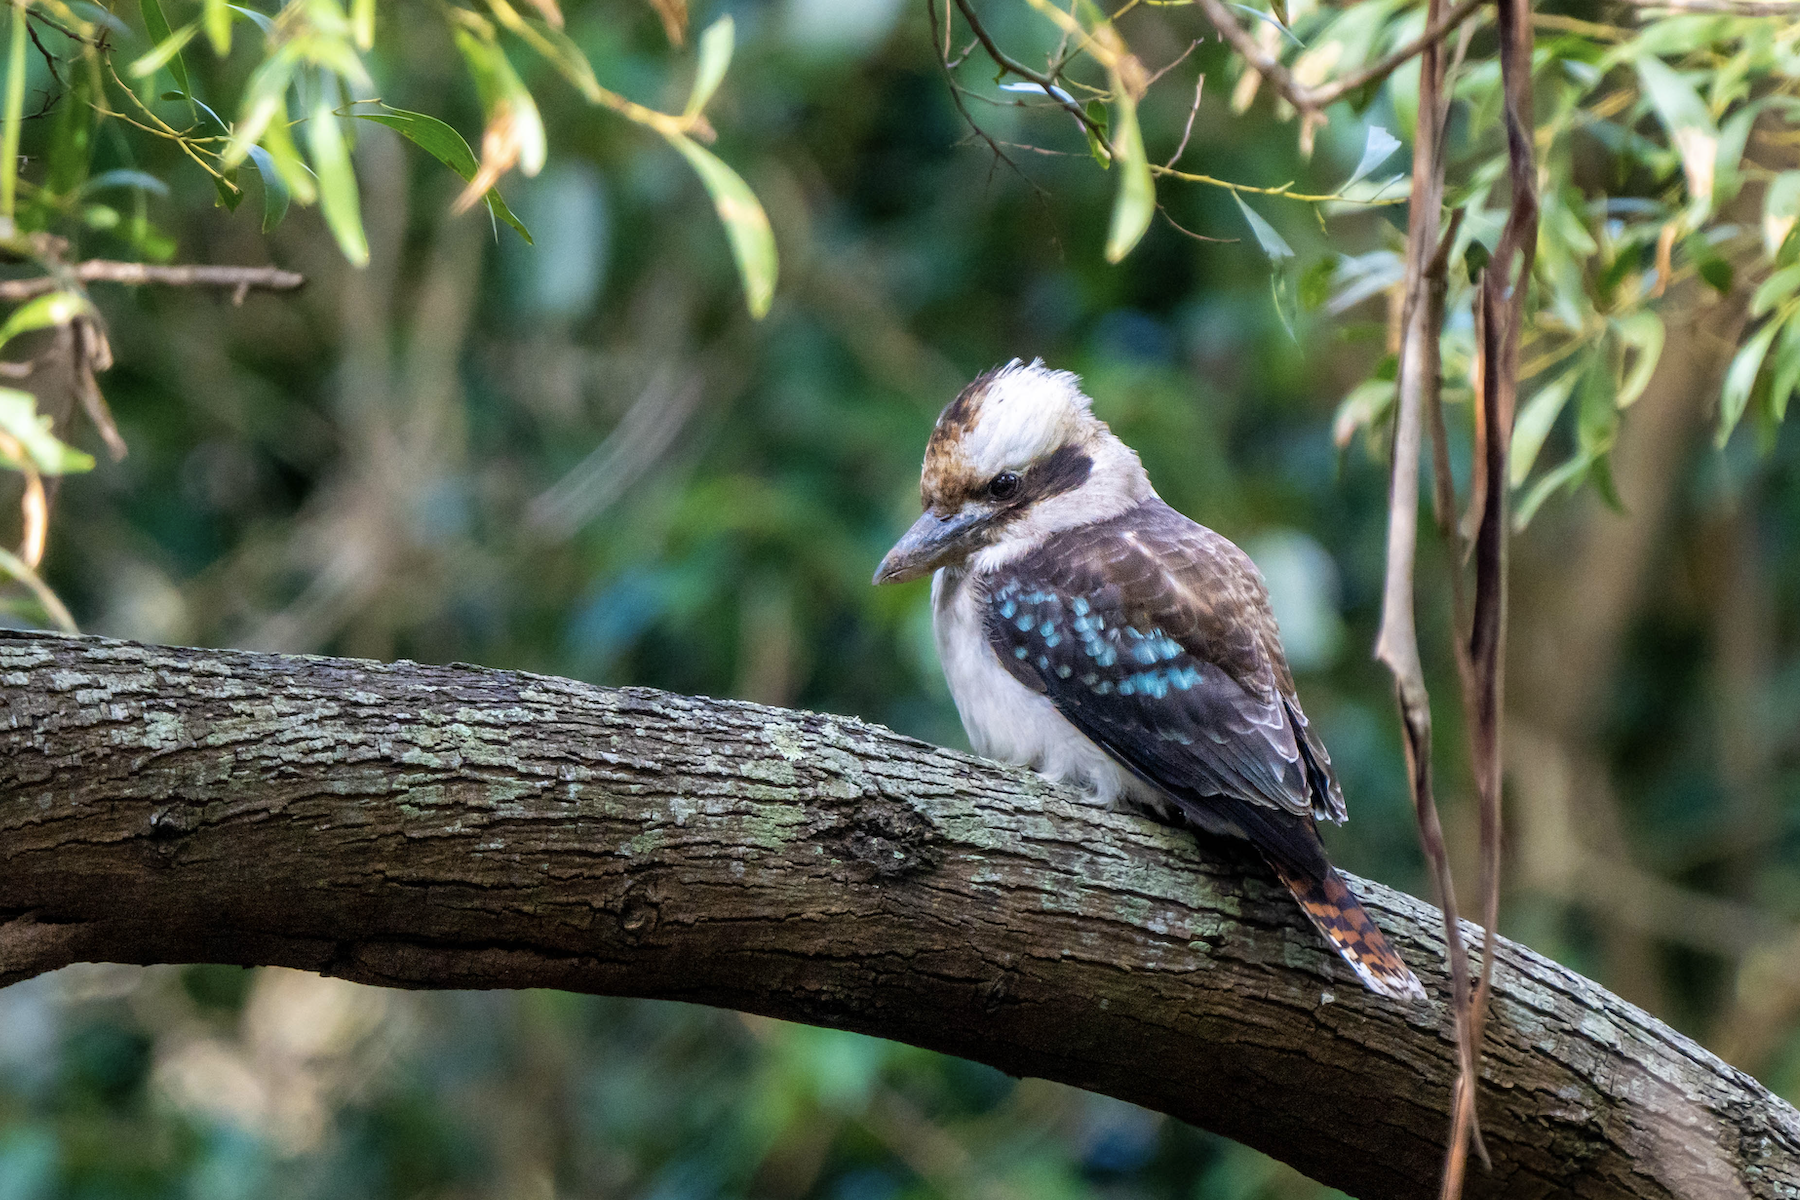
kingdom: Animalia
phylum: Chordata
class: Aves
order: Coraciiformes
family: Alcedinidae
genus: Dacelo
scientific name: Dacelo novaeguineae
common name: Laughing kookaburra
